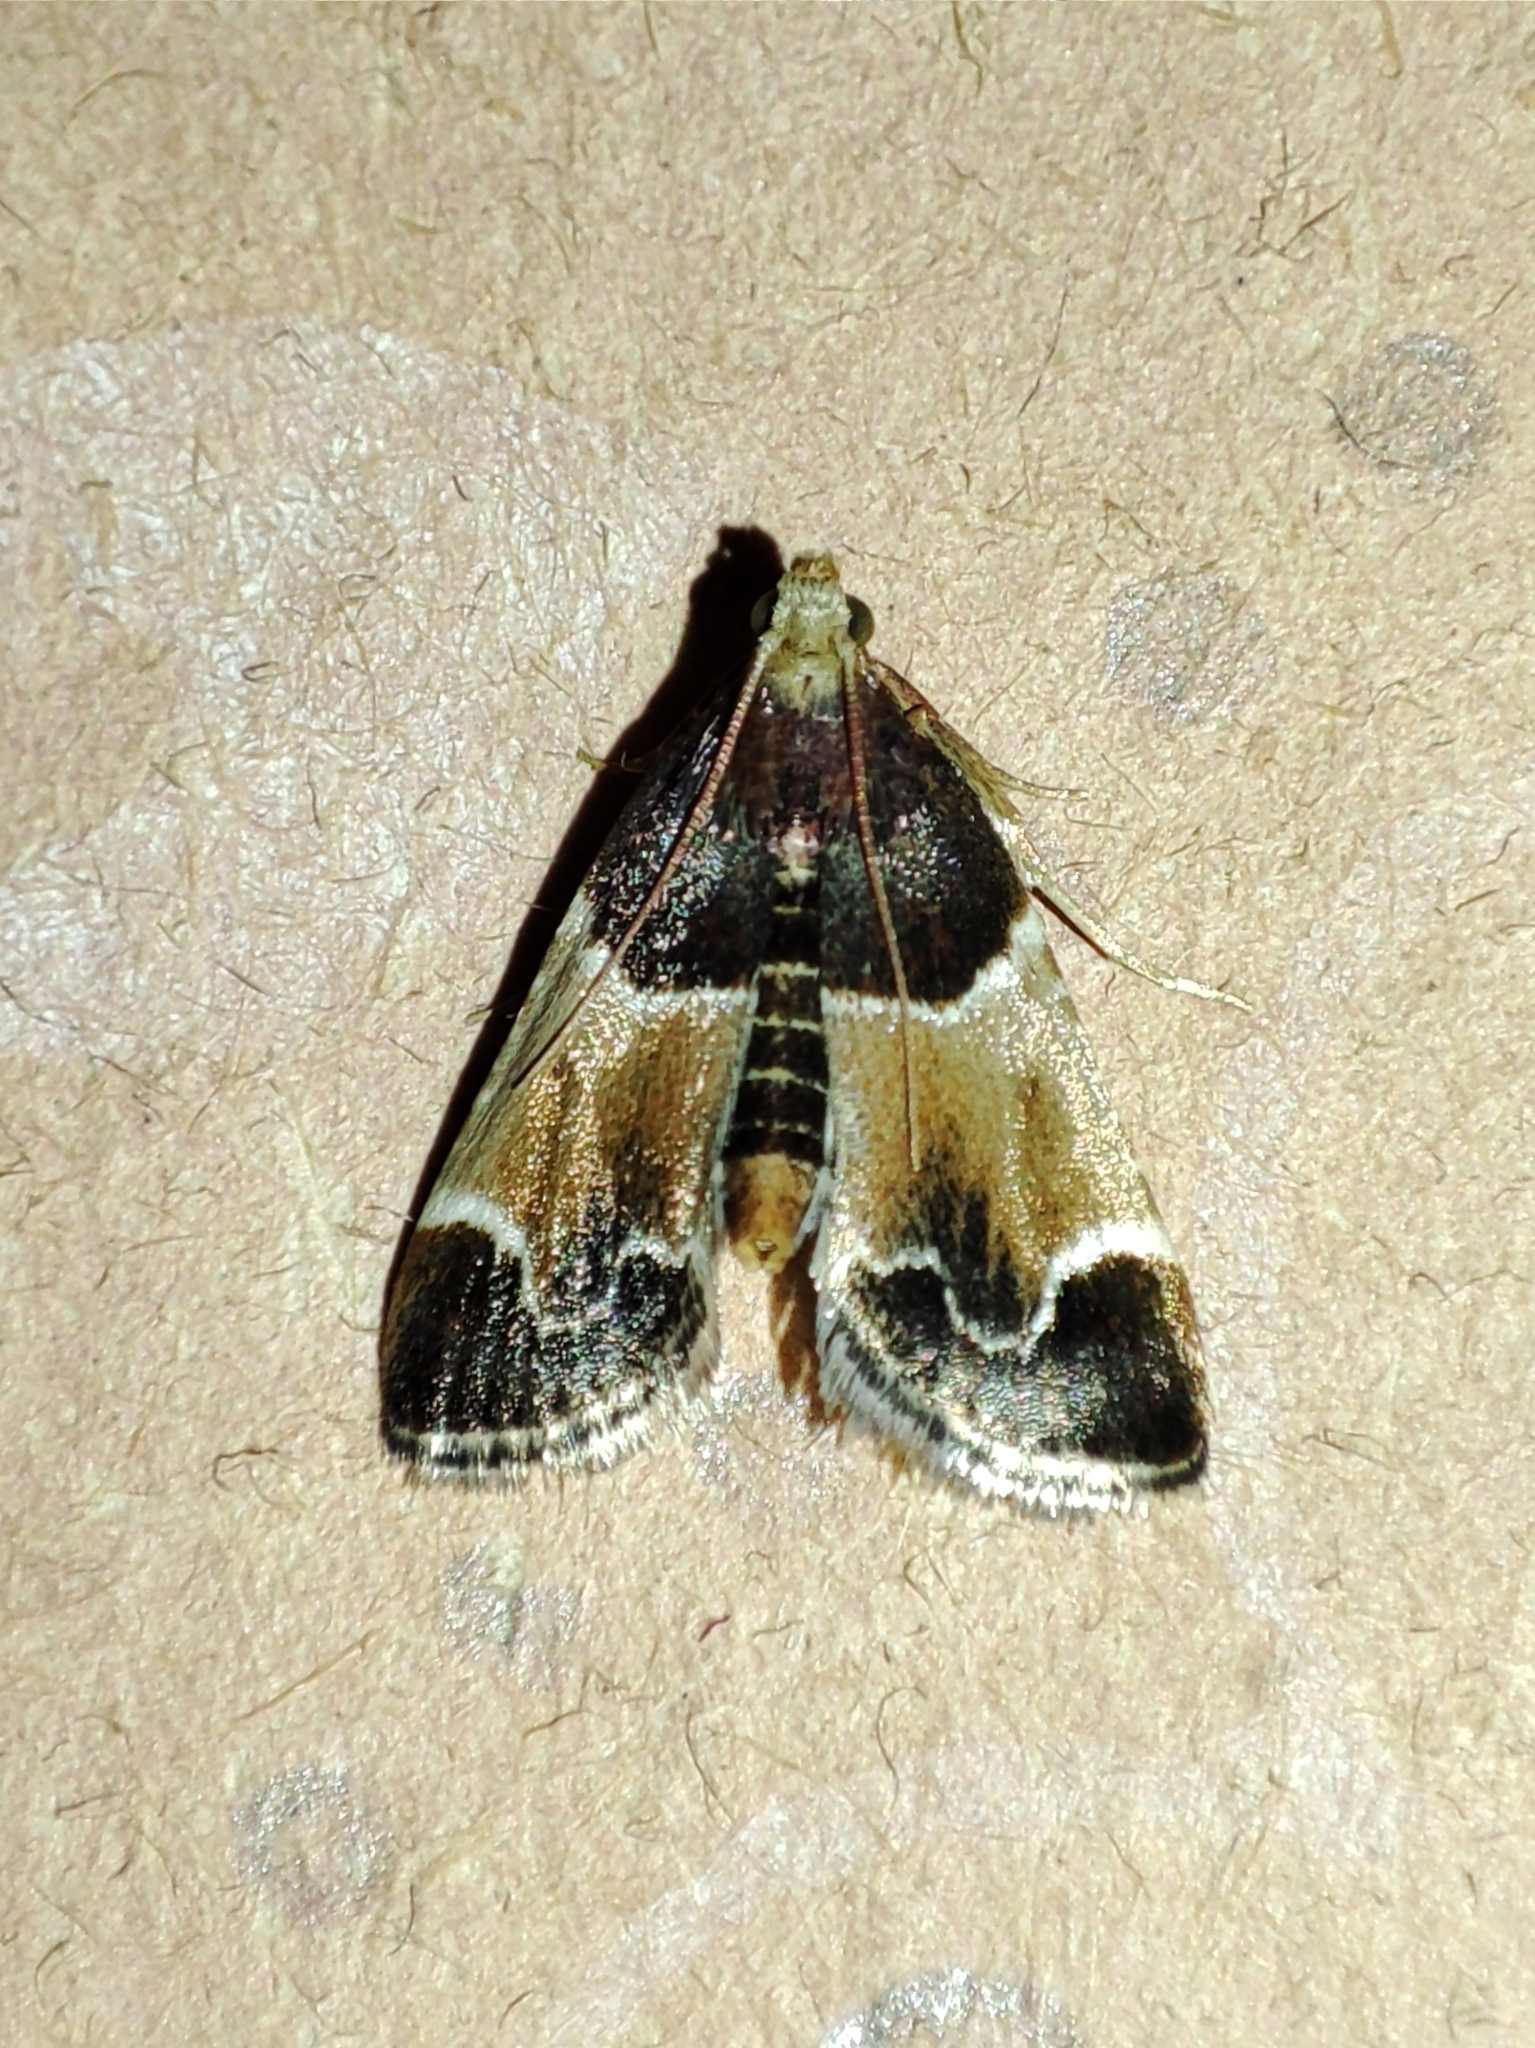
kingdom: Animalia
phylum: Arthropoda
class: Insecta
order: Lepidoptera
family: Pyralidae
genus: Pyralis
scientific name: Pyralis farinalis
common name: Meal moth
